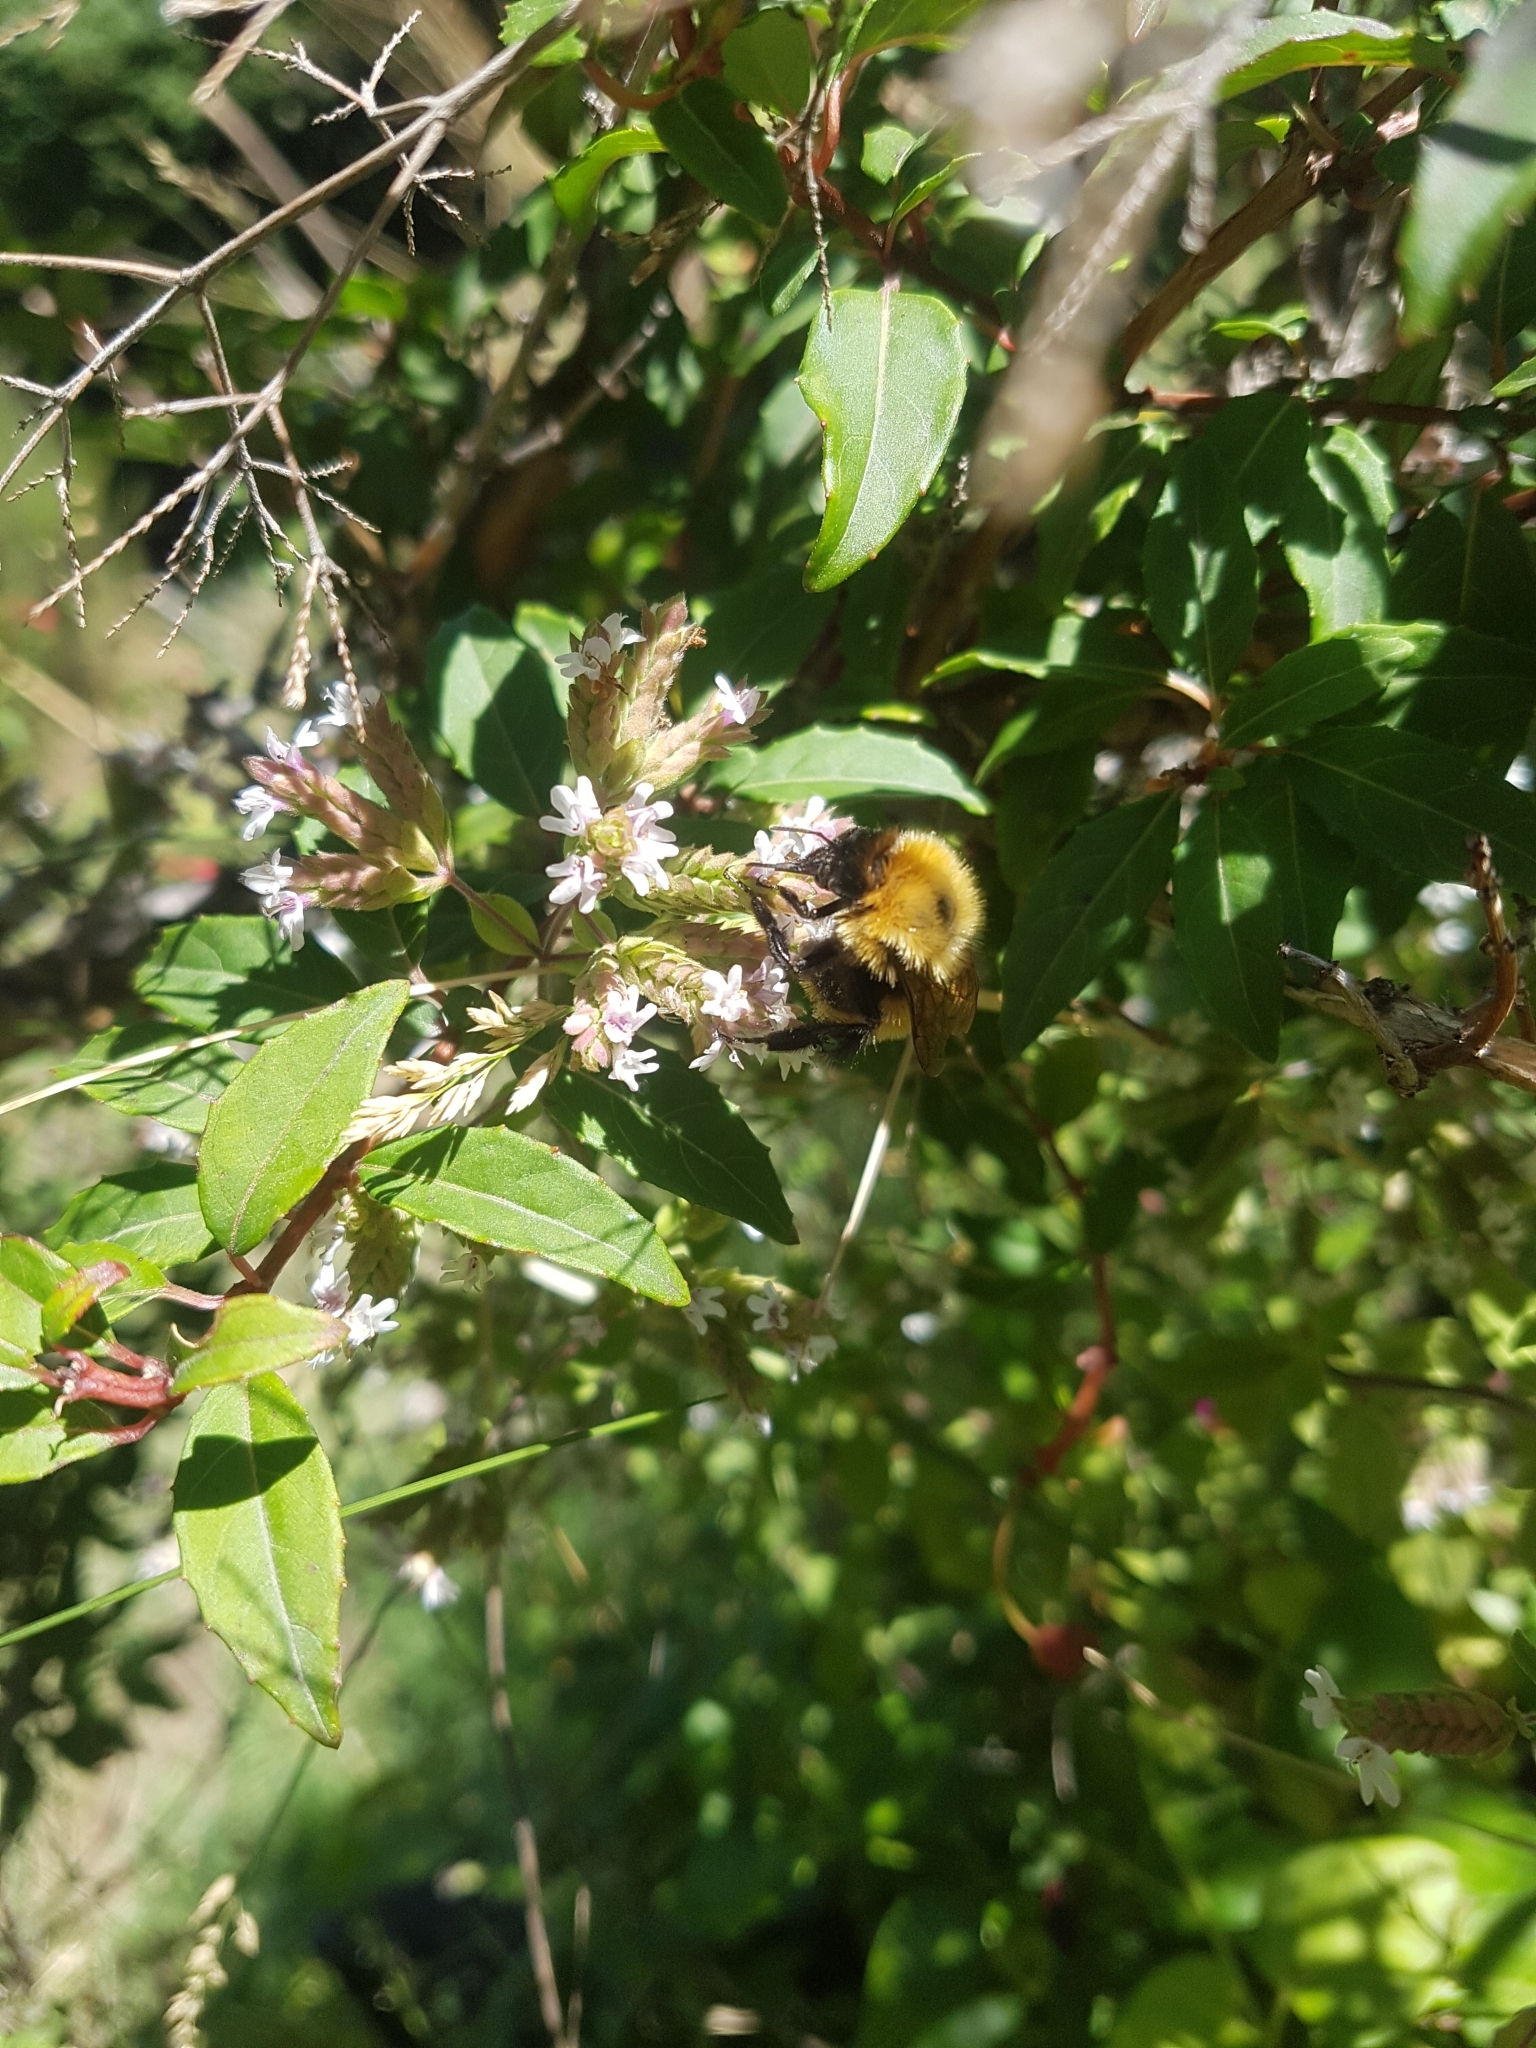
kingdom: Animalia
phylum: Arthropoda
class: Insecta
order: Hymenoptera
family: Apidae
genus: Bombus
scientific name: Bombus dahlbomii
